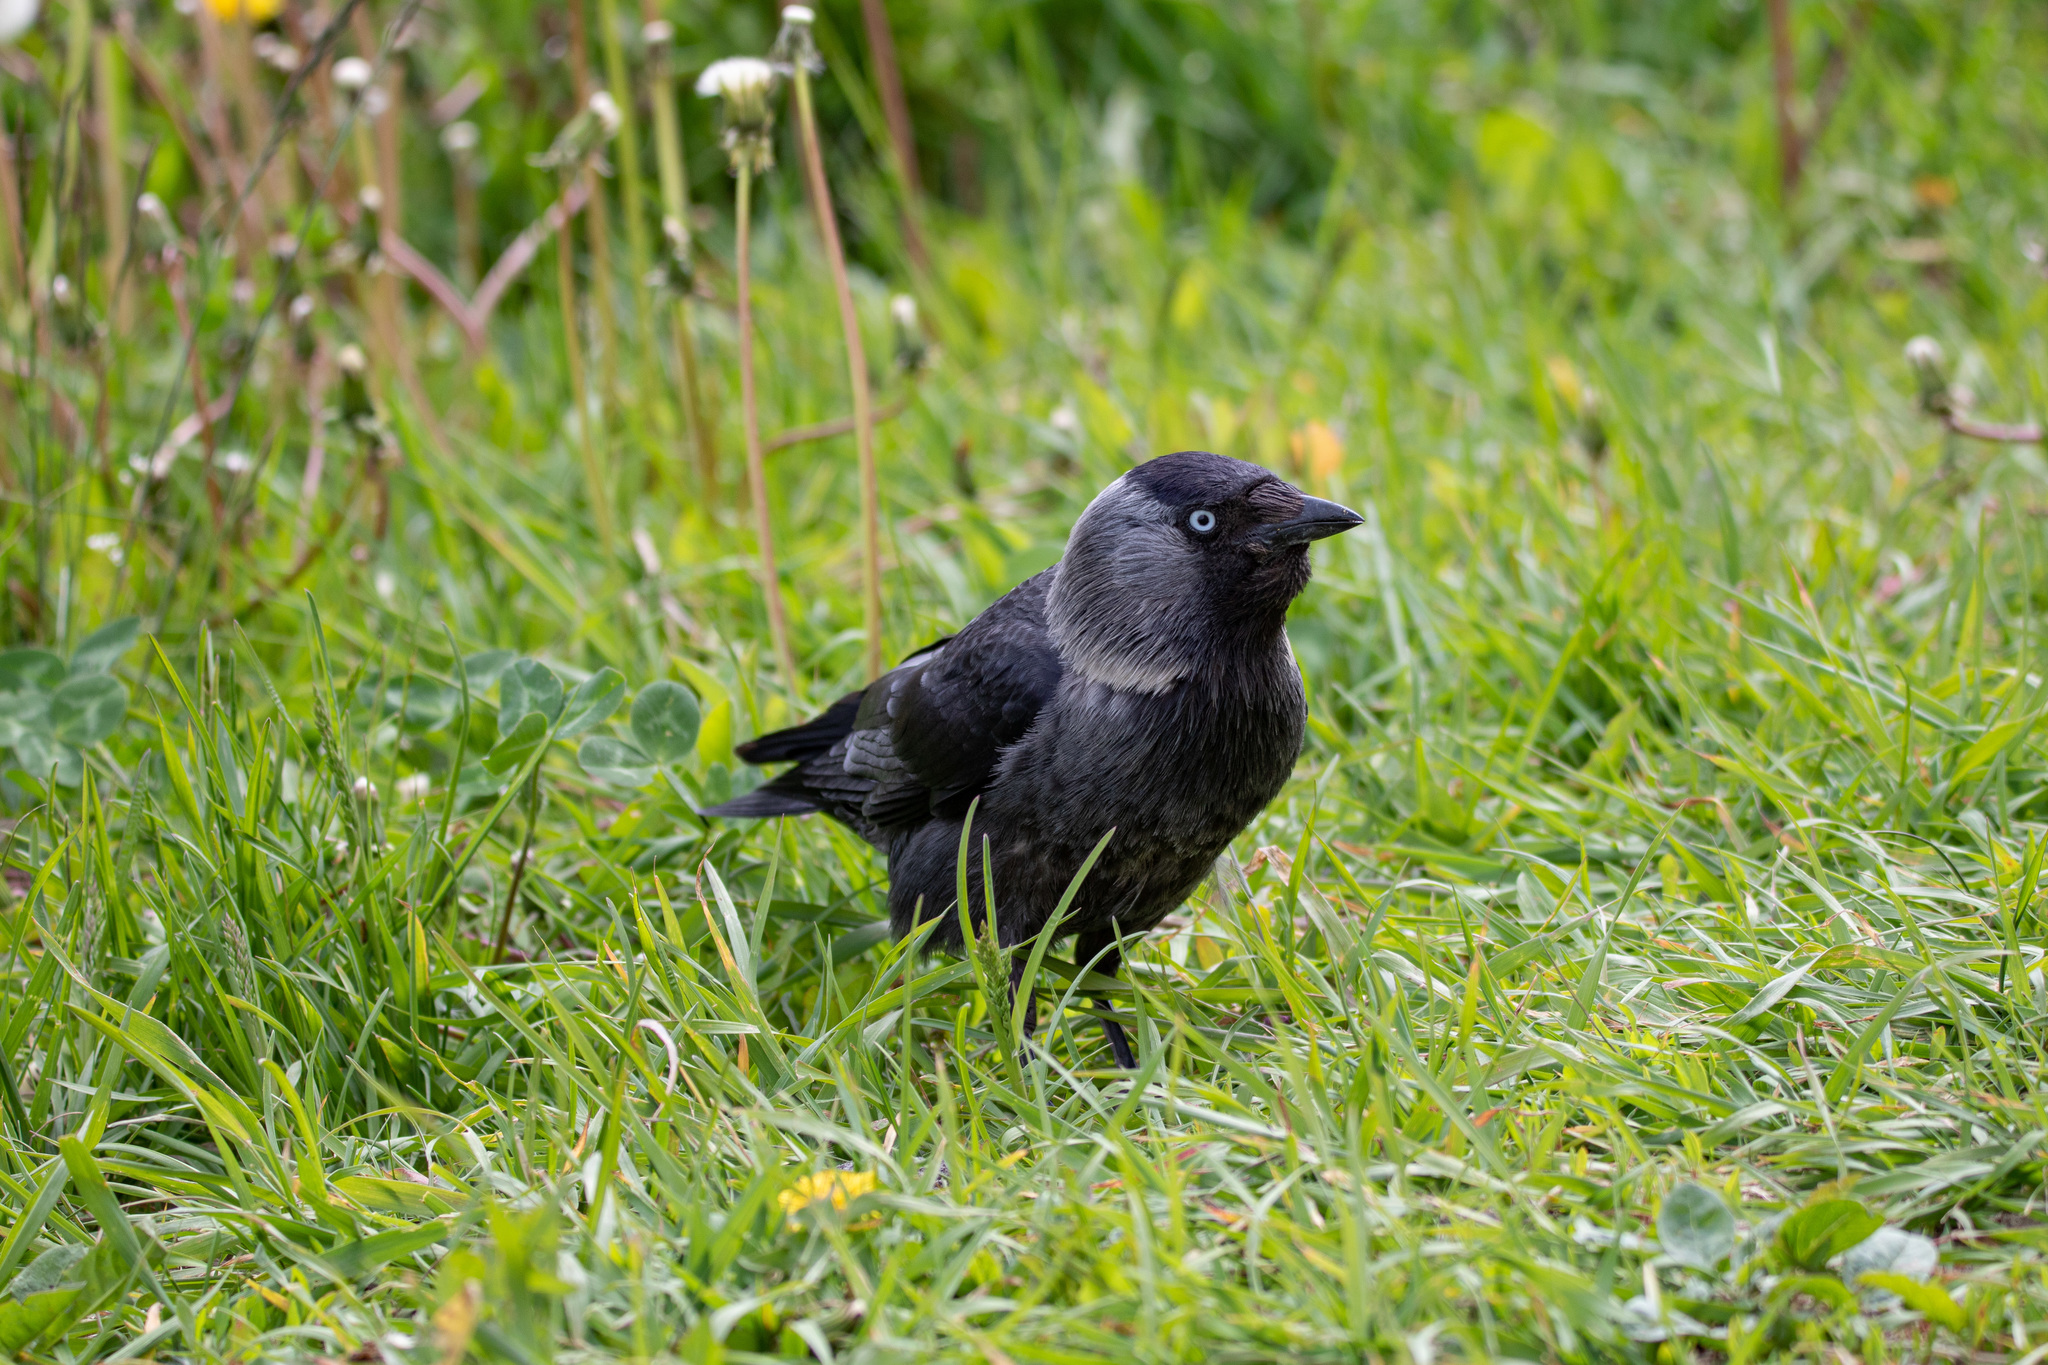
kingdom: Animalia
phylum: Chordata
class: Aves
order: Passeriformes
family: Corvidae
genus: Coloeus
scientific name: Coloeus monedula
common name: Western jackdaw
